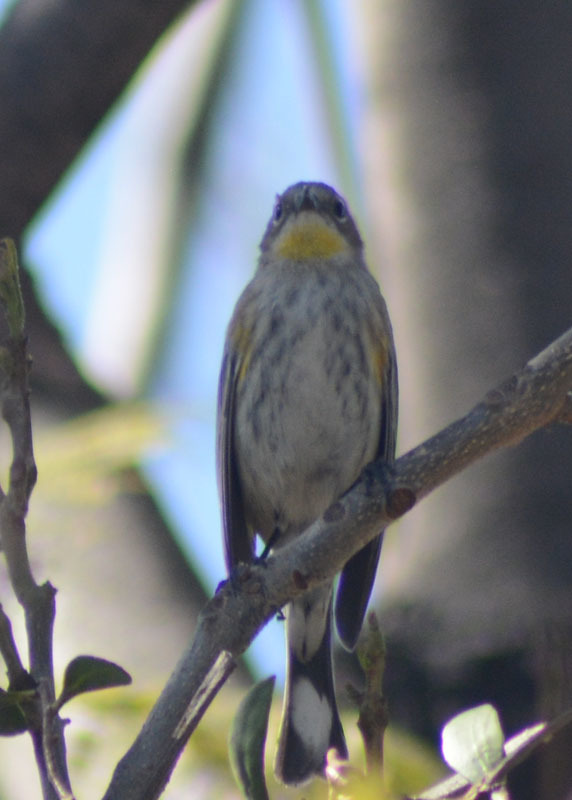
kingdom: Animalia
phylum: Chordata
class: Aves
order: Passeriformes
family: Parulidae
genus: Setophaga
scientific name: Setophaga auduboni
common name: Audubon's warbler
